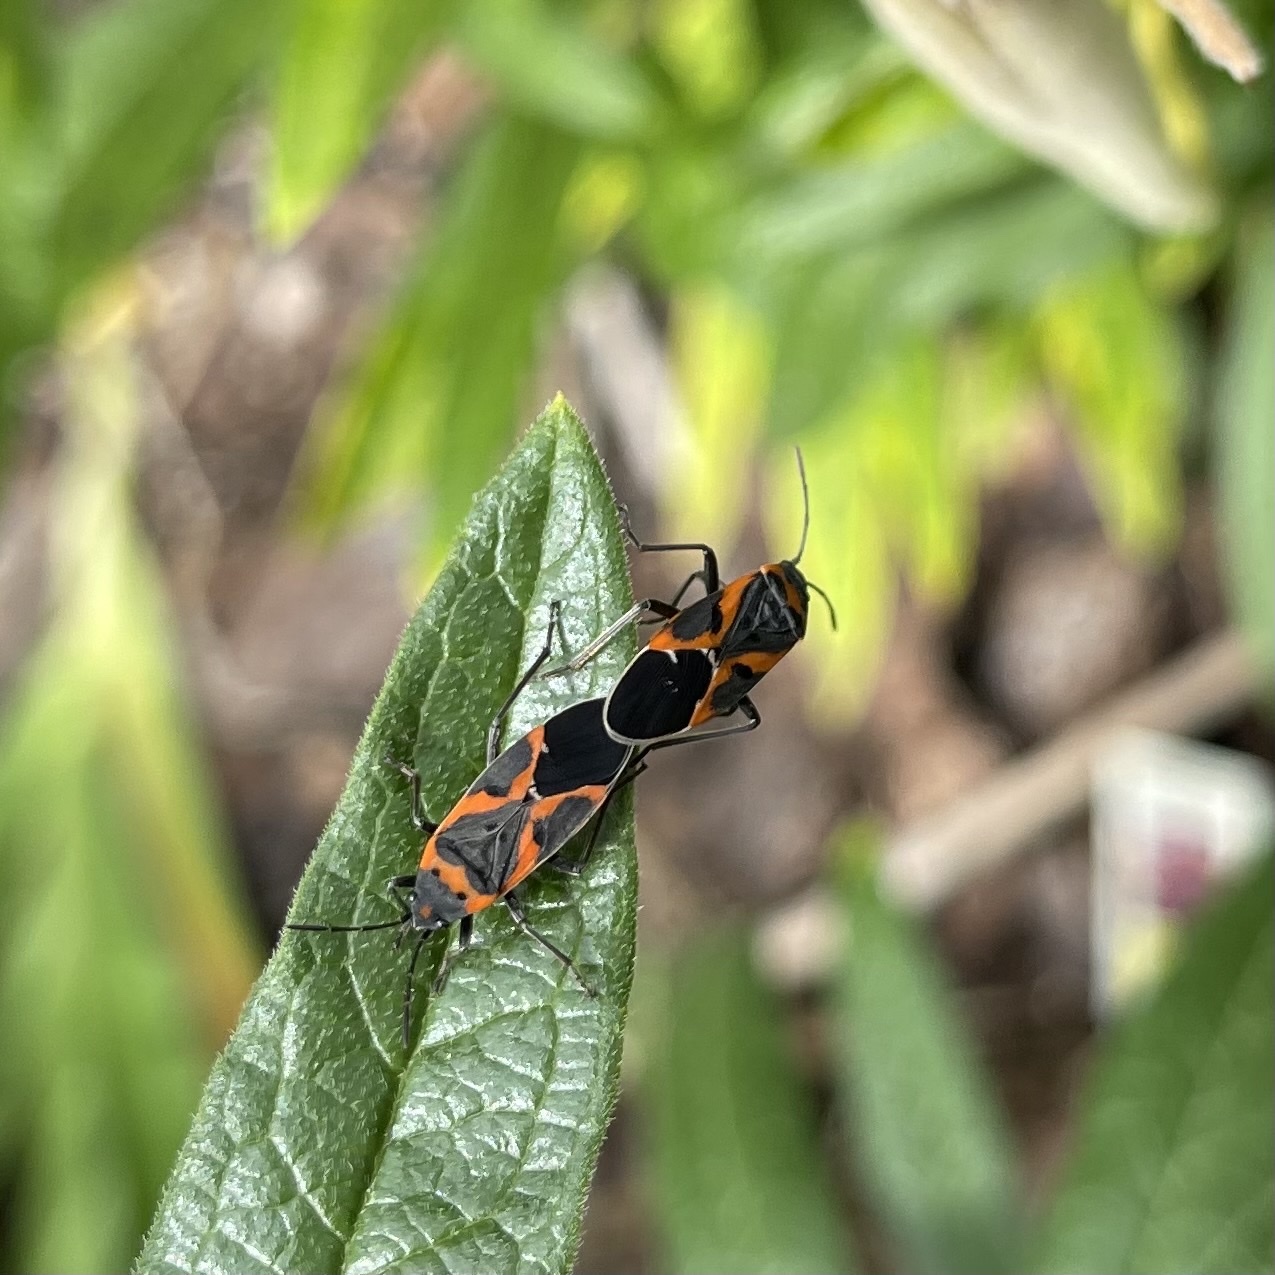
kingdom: Animalia
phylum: Arthropoda
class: Insecta
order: Hemiptera
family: Lygaeidae
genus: Lygaeus
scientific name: Lygaeus kalmii
